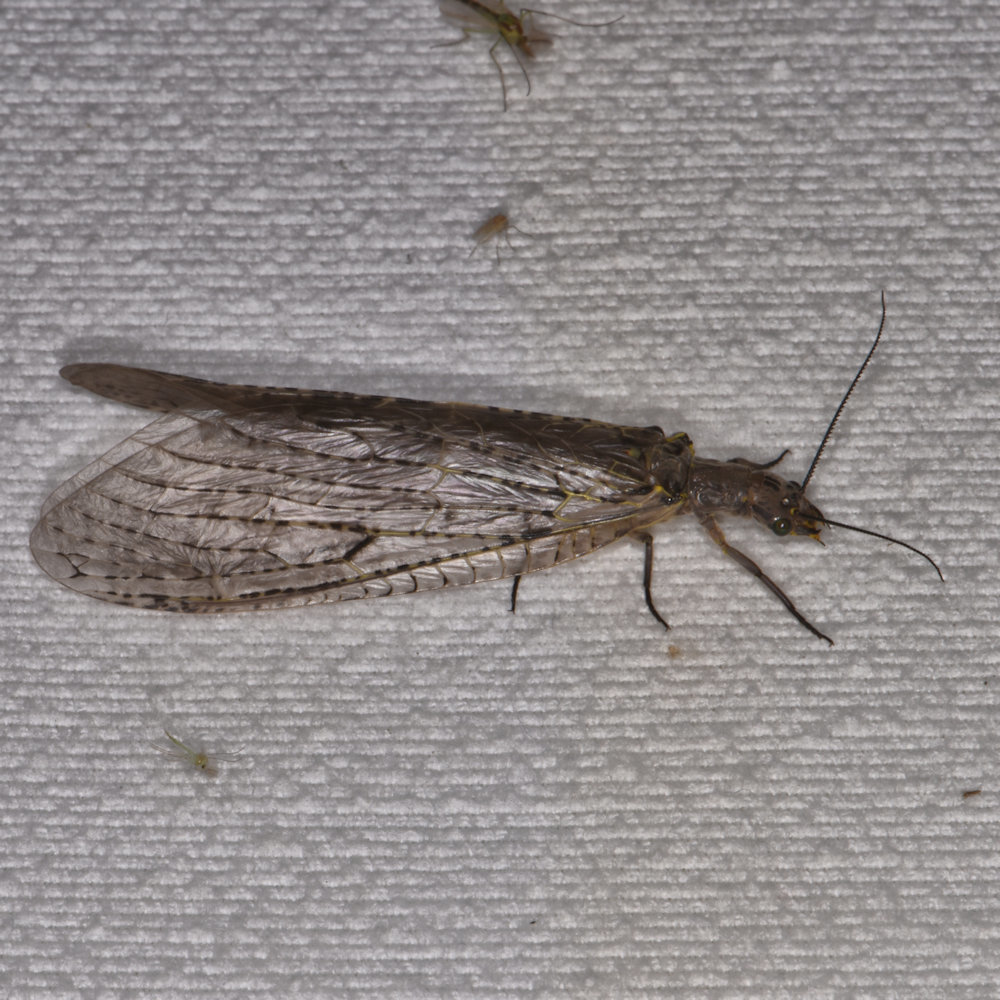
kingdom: Animalia
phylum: Arthropoda
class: Insecta
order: Megaloptera
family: Corydalidae
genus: Chauliodes
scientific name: Chauliodes rastricornis
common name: Spring fishfly
